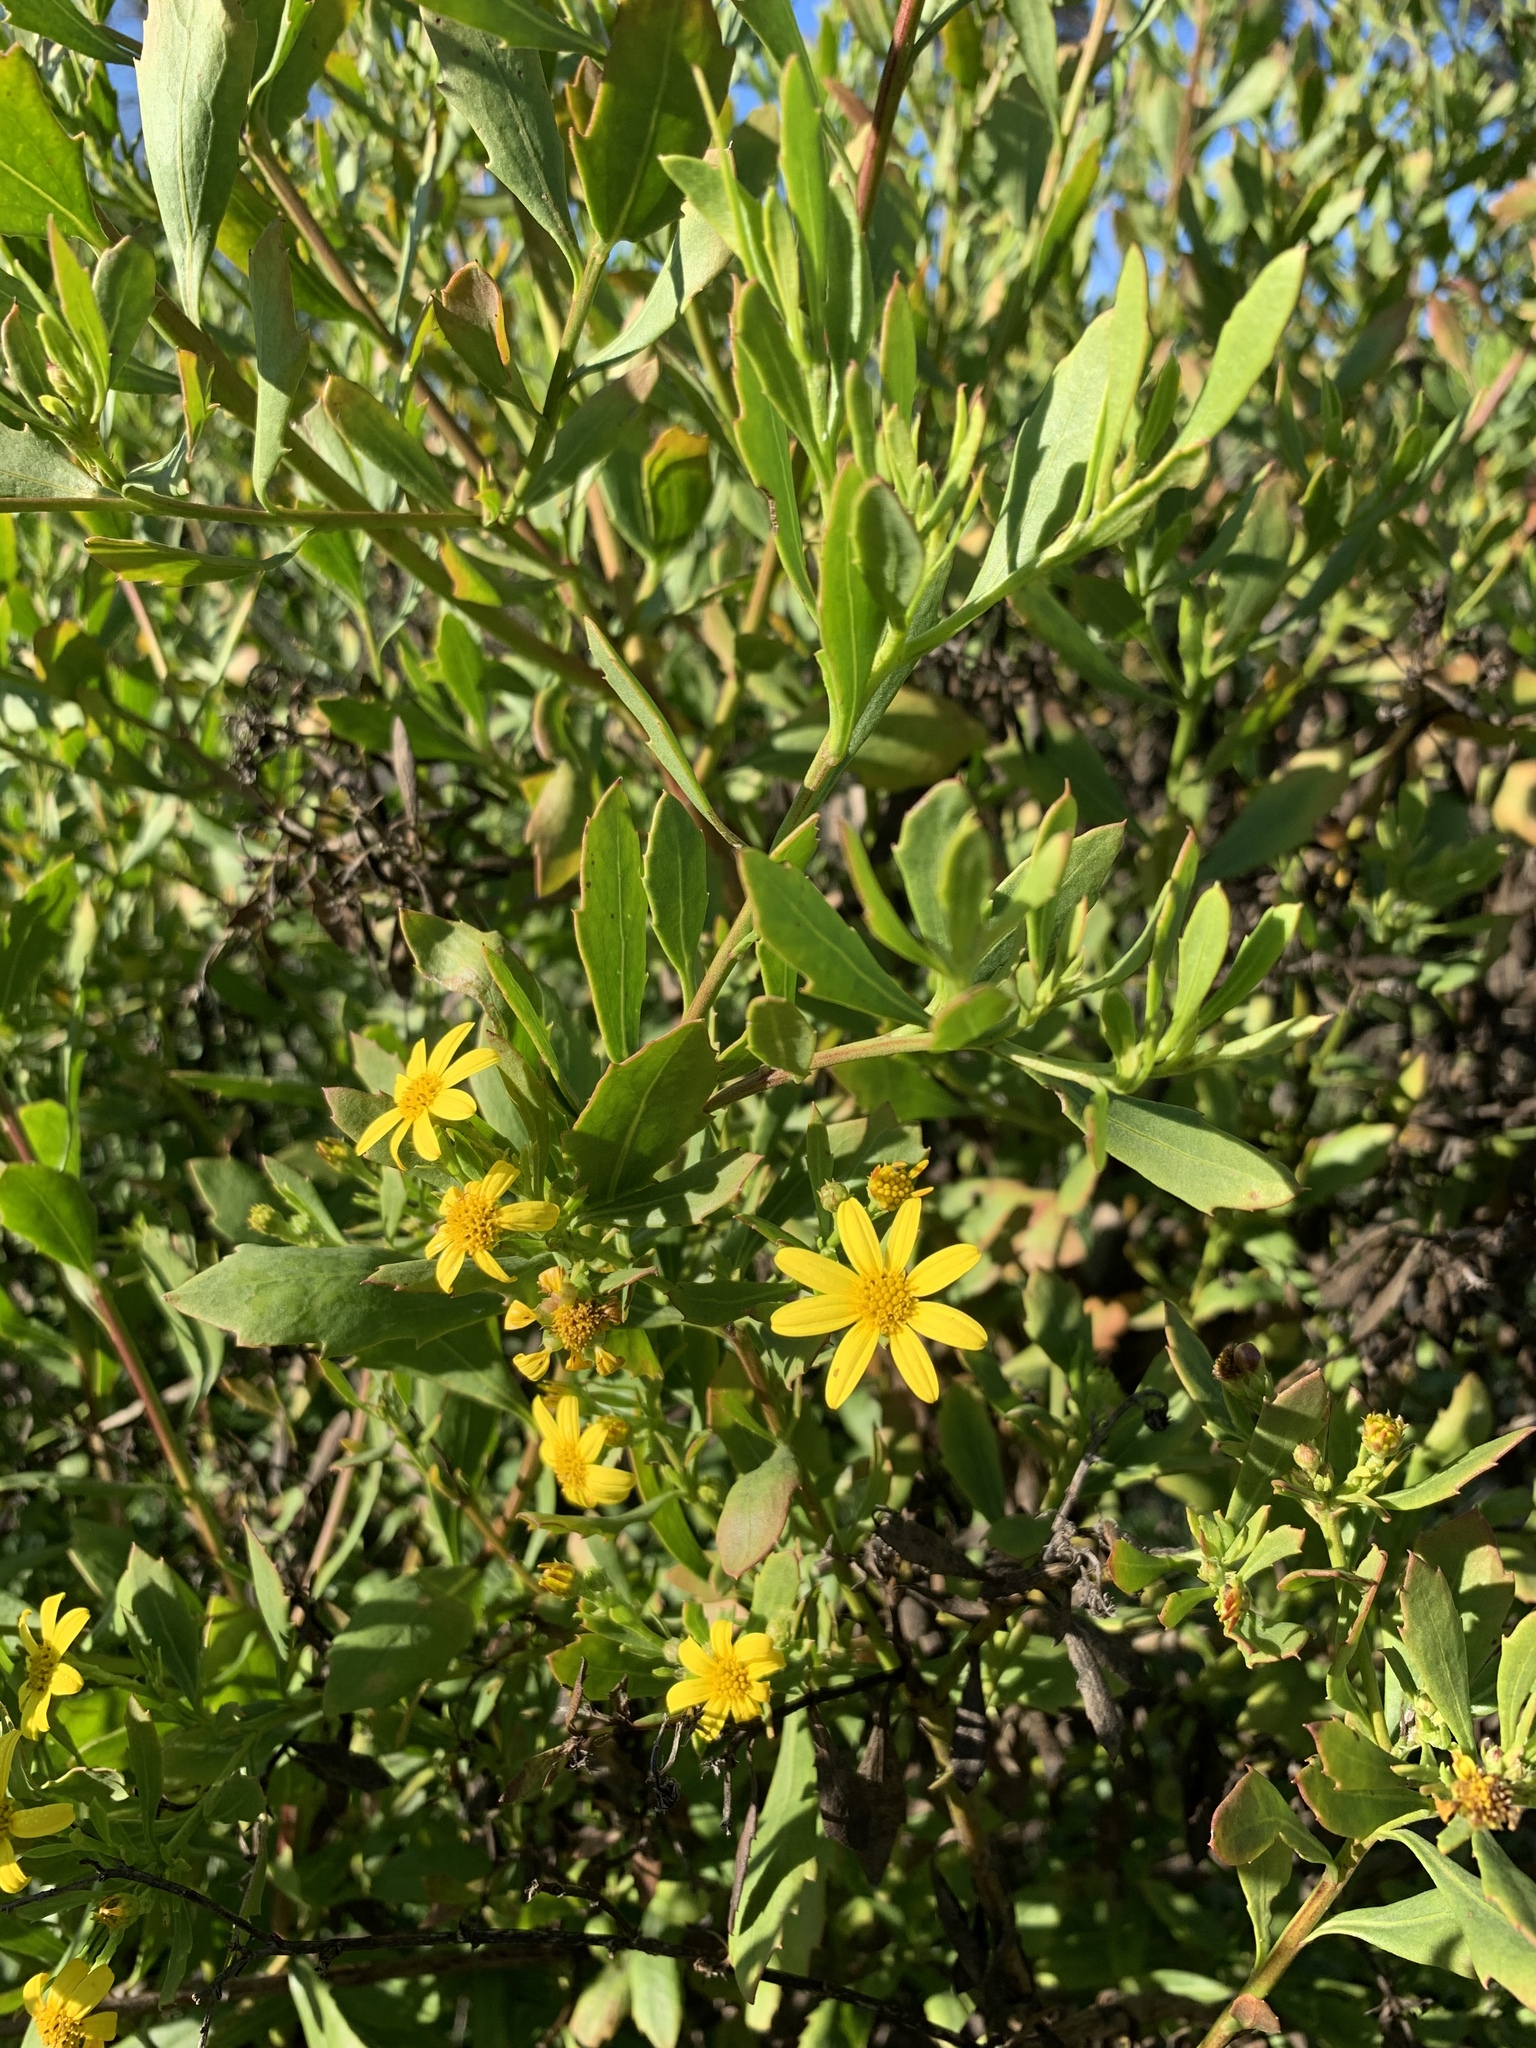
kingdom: Plantae
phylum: Tracheophyta
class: Magnoliopsida
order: Asterales
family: Asteraceae
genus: Osteospermum
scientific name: Osteospermum moniliferum
